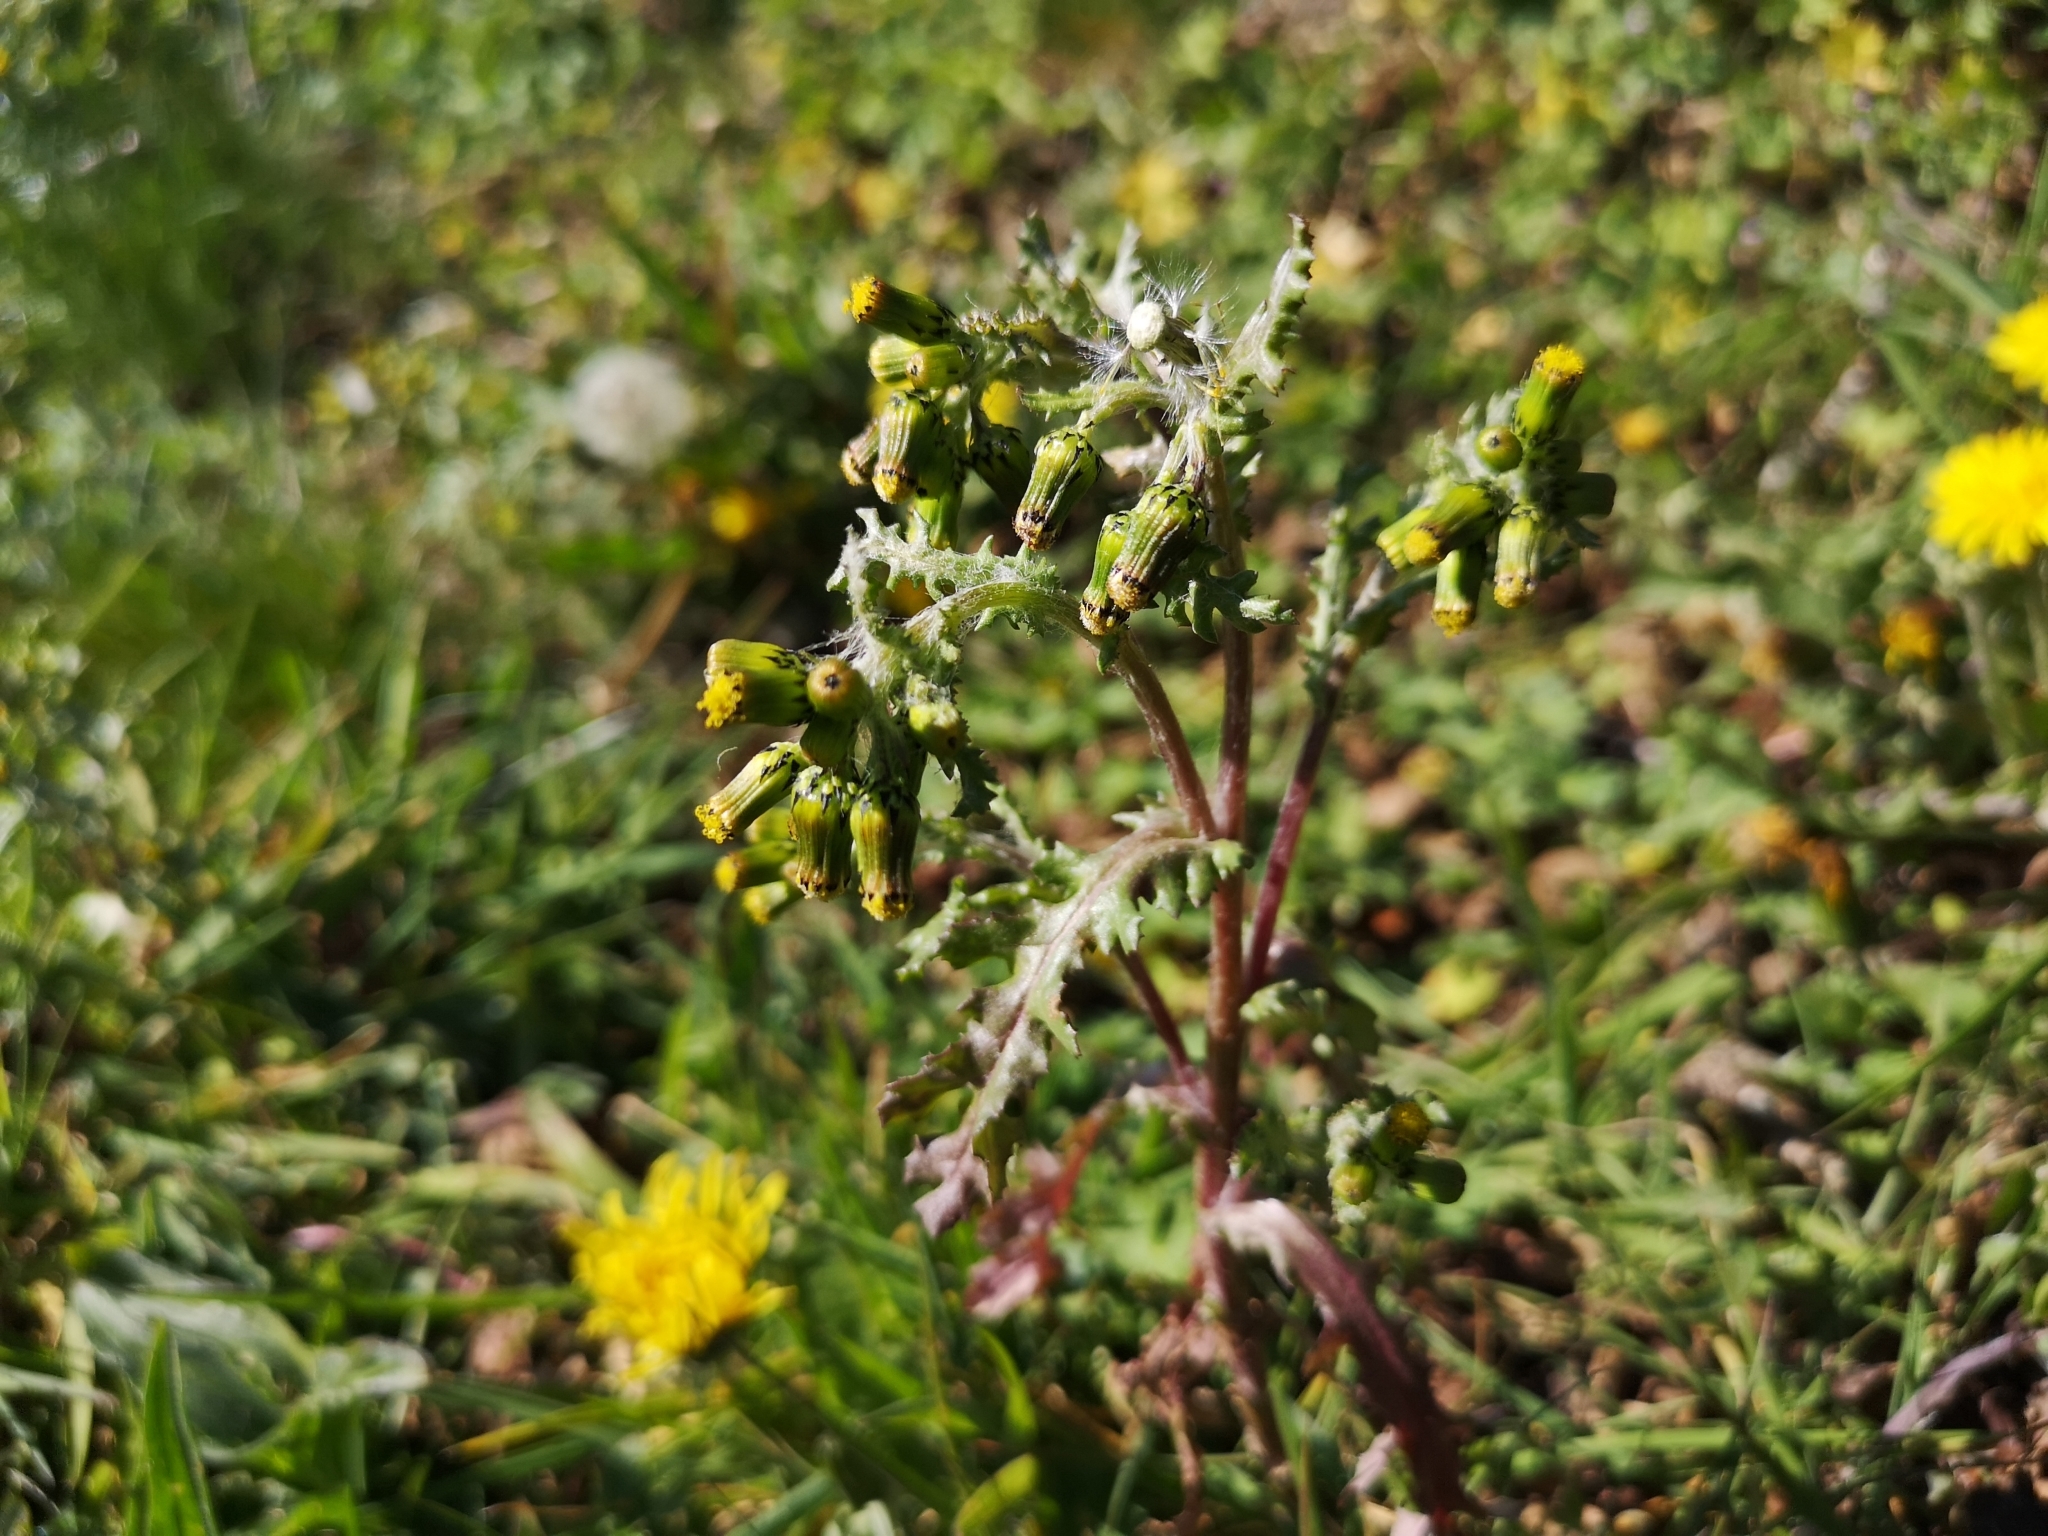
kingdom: Plantae
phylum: Tracheophyta
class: Magnoliopsida
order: Asterales
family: Asteraceae
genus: Senecio
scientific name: Senecio vulgaris
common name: Old-man-in-the-spring
